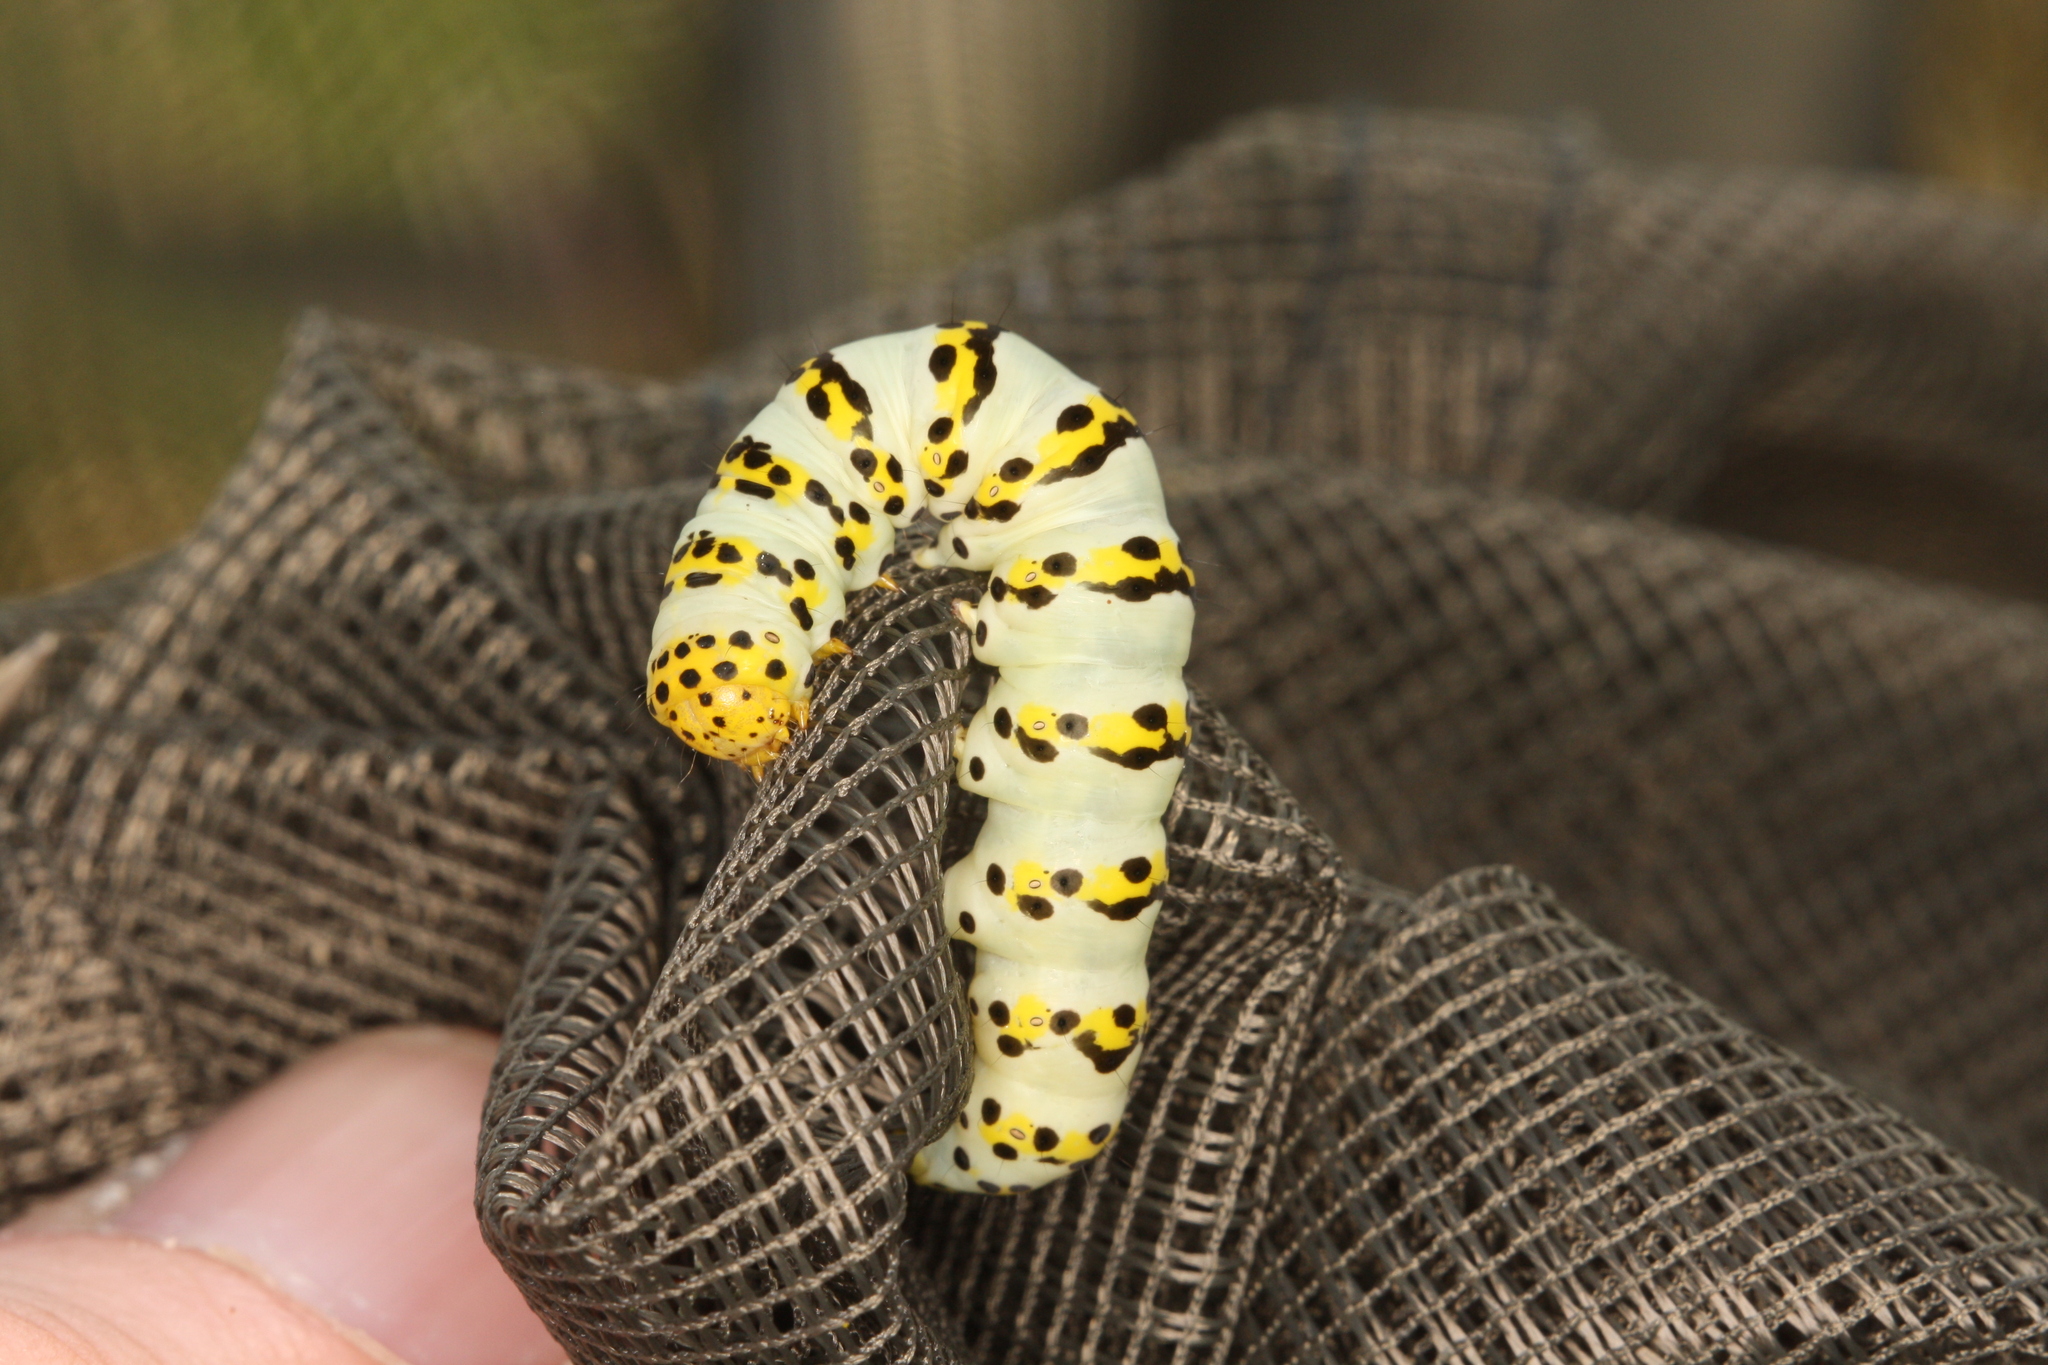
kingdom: Animalia
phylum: Arthropoda
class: Insecta
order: Lepidoptera
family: Noctuidae
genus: Cucullia
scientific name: Cucullia lychnitis
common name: Striped lychnis
